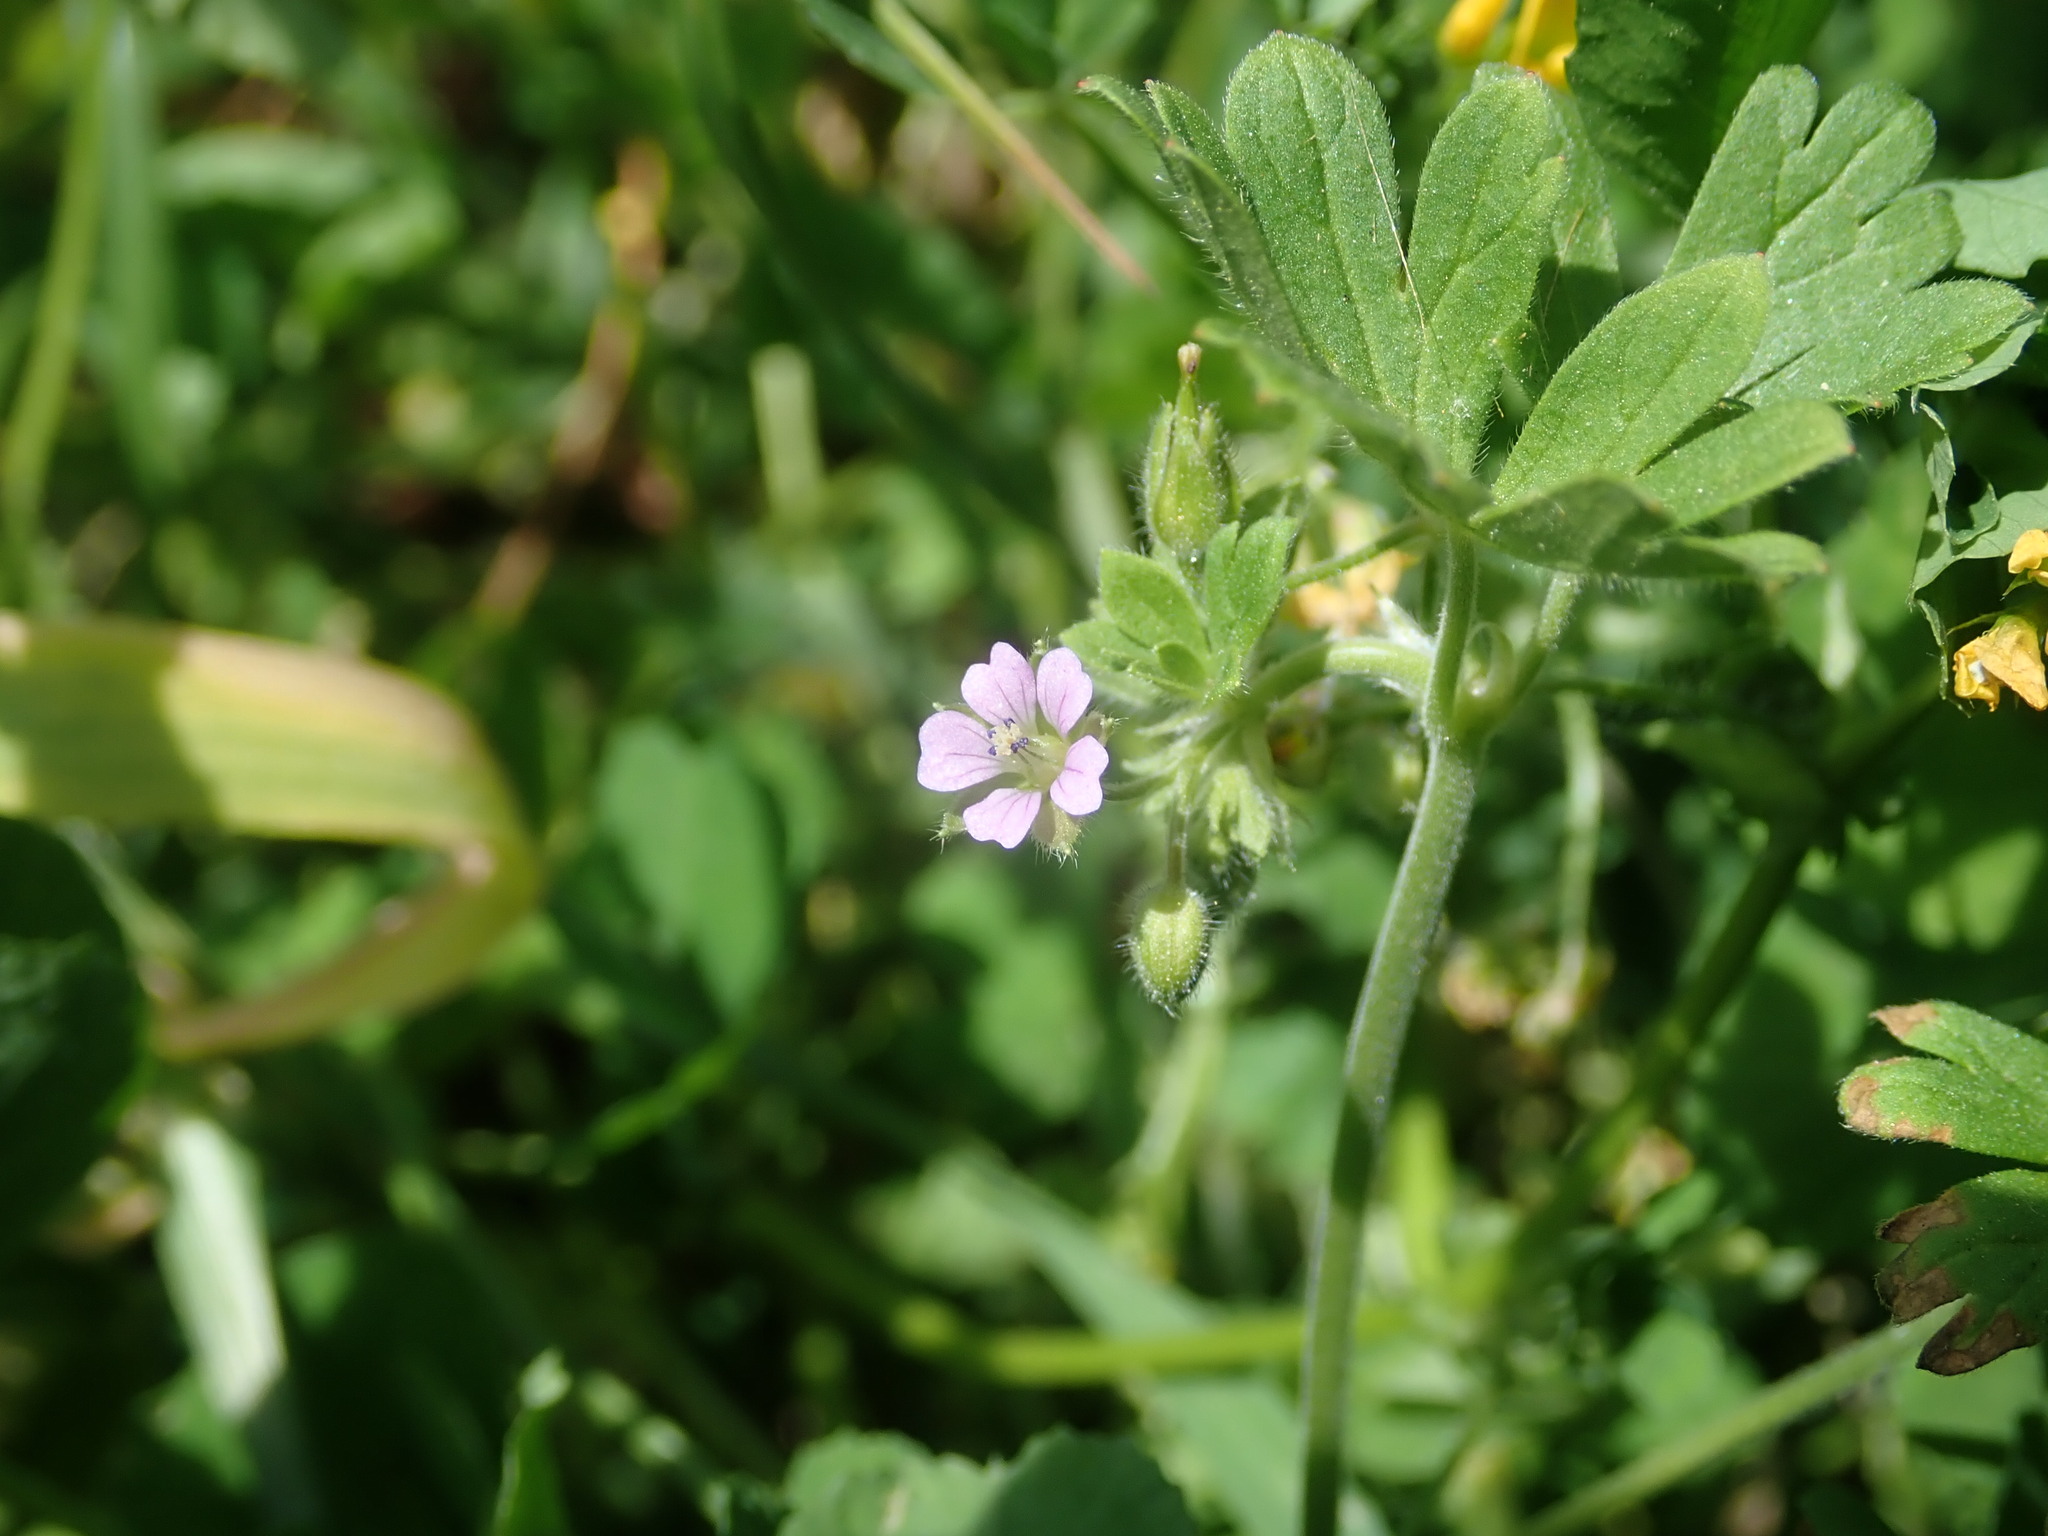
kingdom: Plantae
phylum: Tracheophyta
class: Magnoliopsida
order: Geraniales
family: Geraniaceae
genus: Geranium
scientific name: Geranium pusillum
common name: Small geranium
